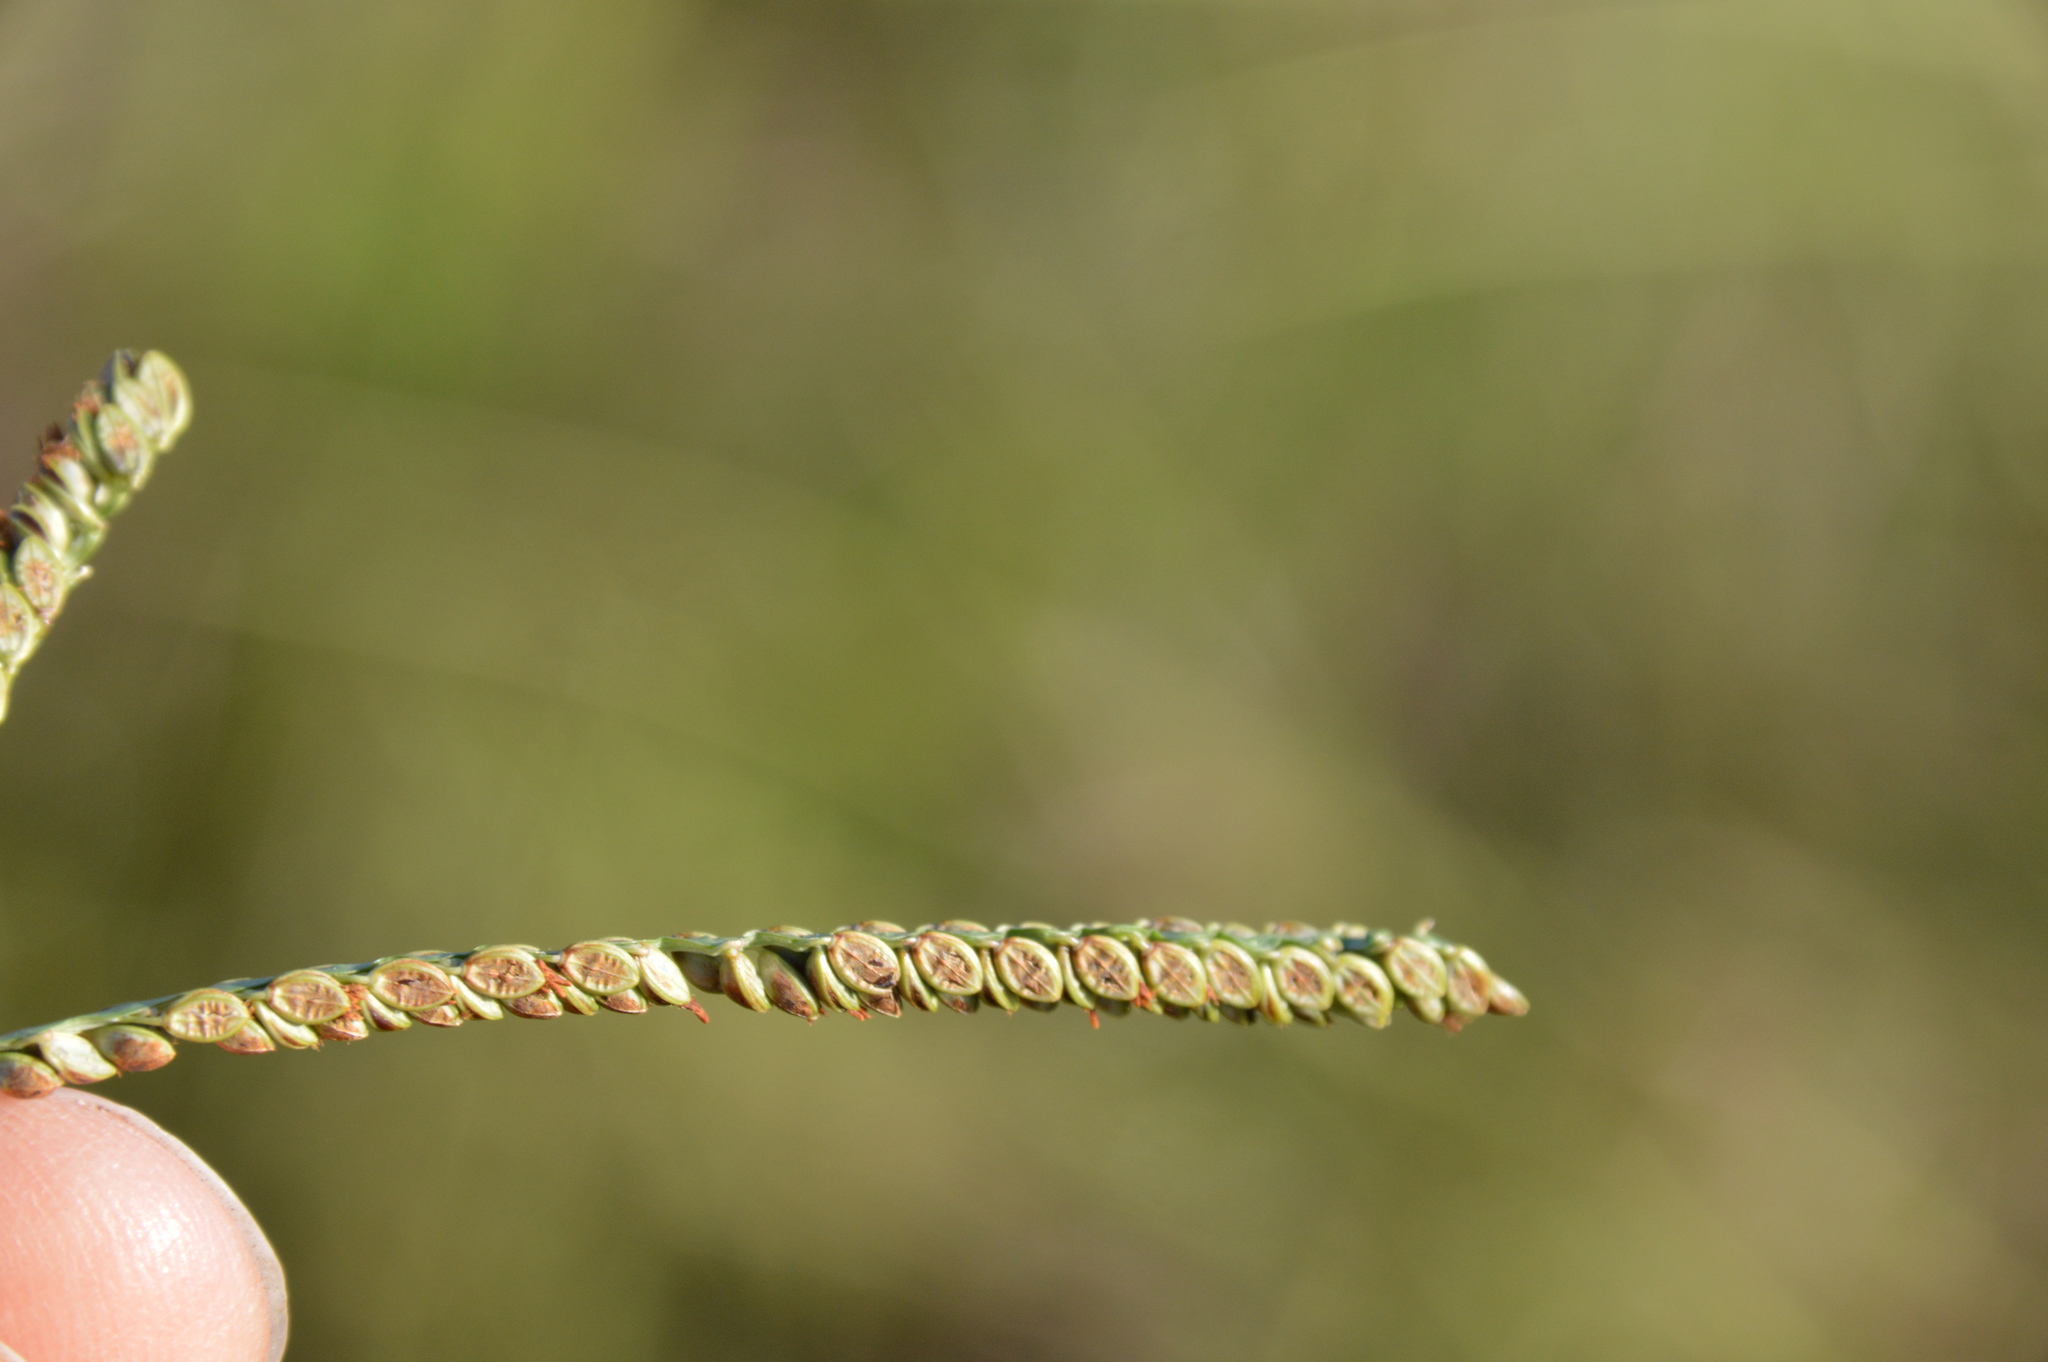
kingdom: Plantae
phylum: Tracheophyta
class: Liliopsida
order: Poales
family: Poaceae
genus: Paspalum
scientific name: Paspalum plicatulum
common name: Top paspalum
